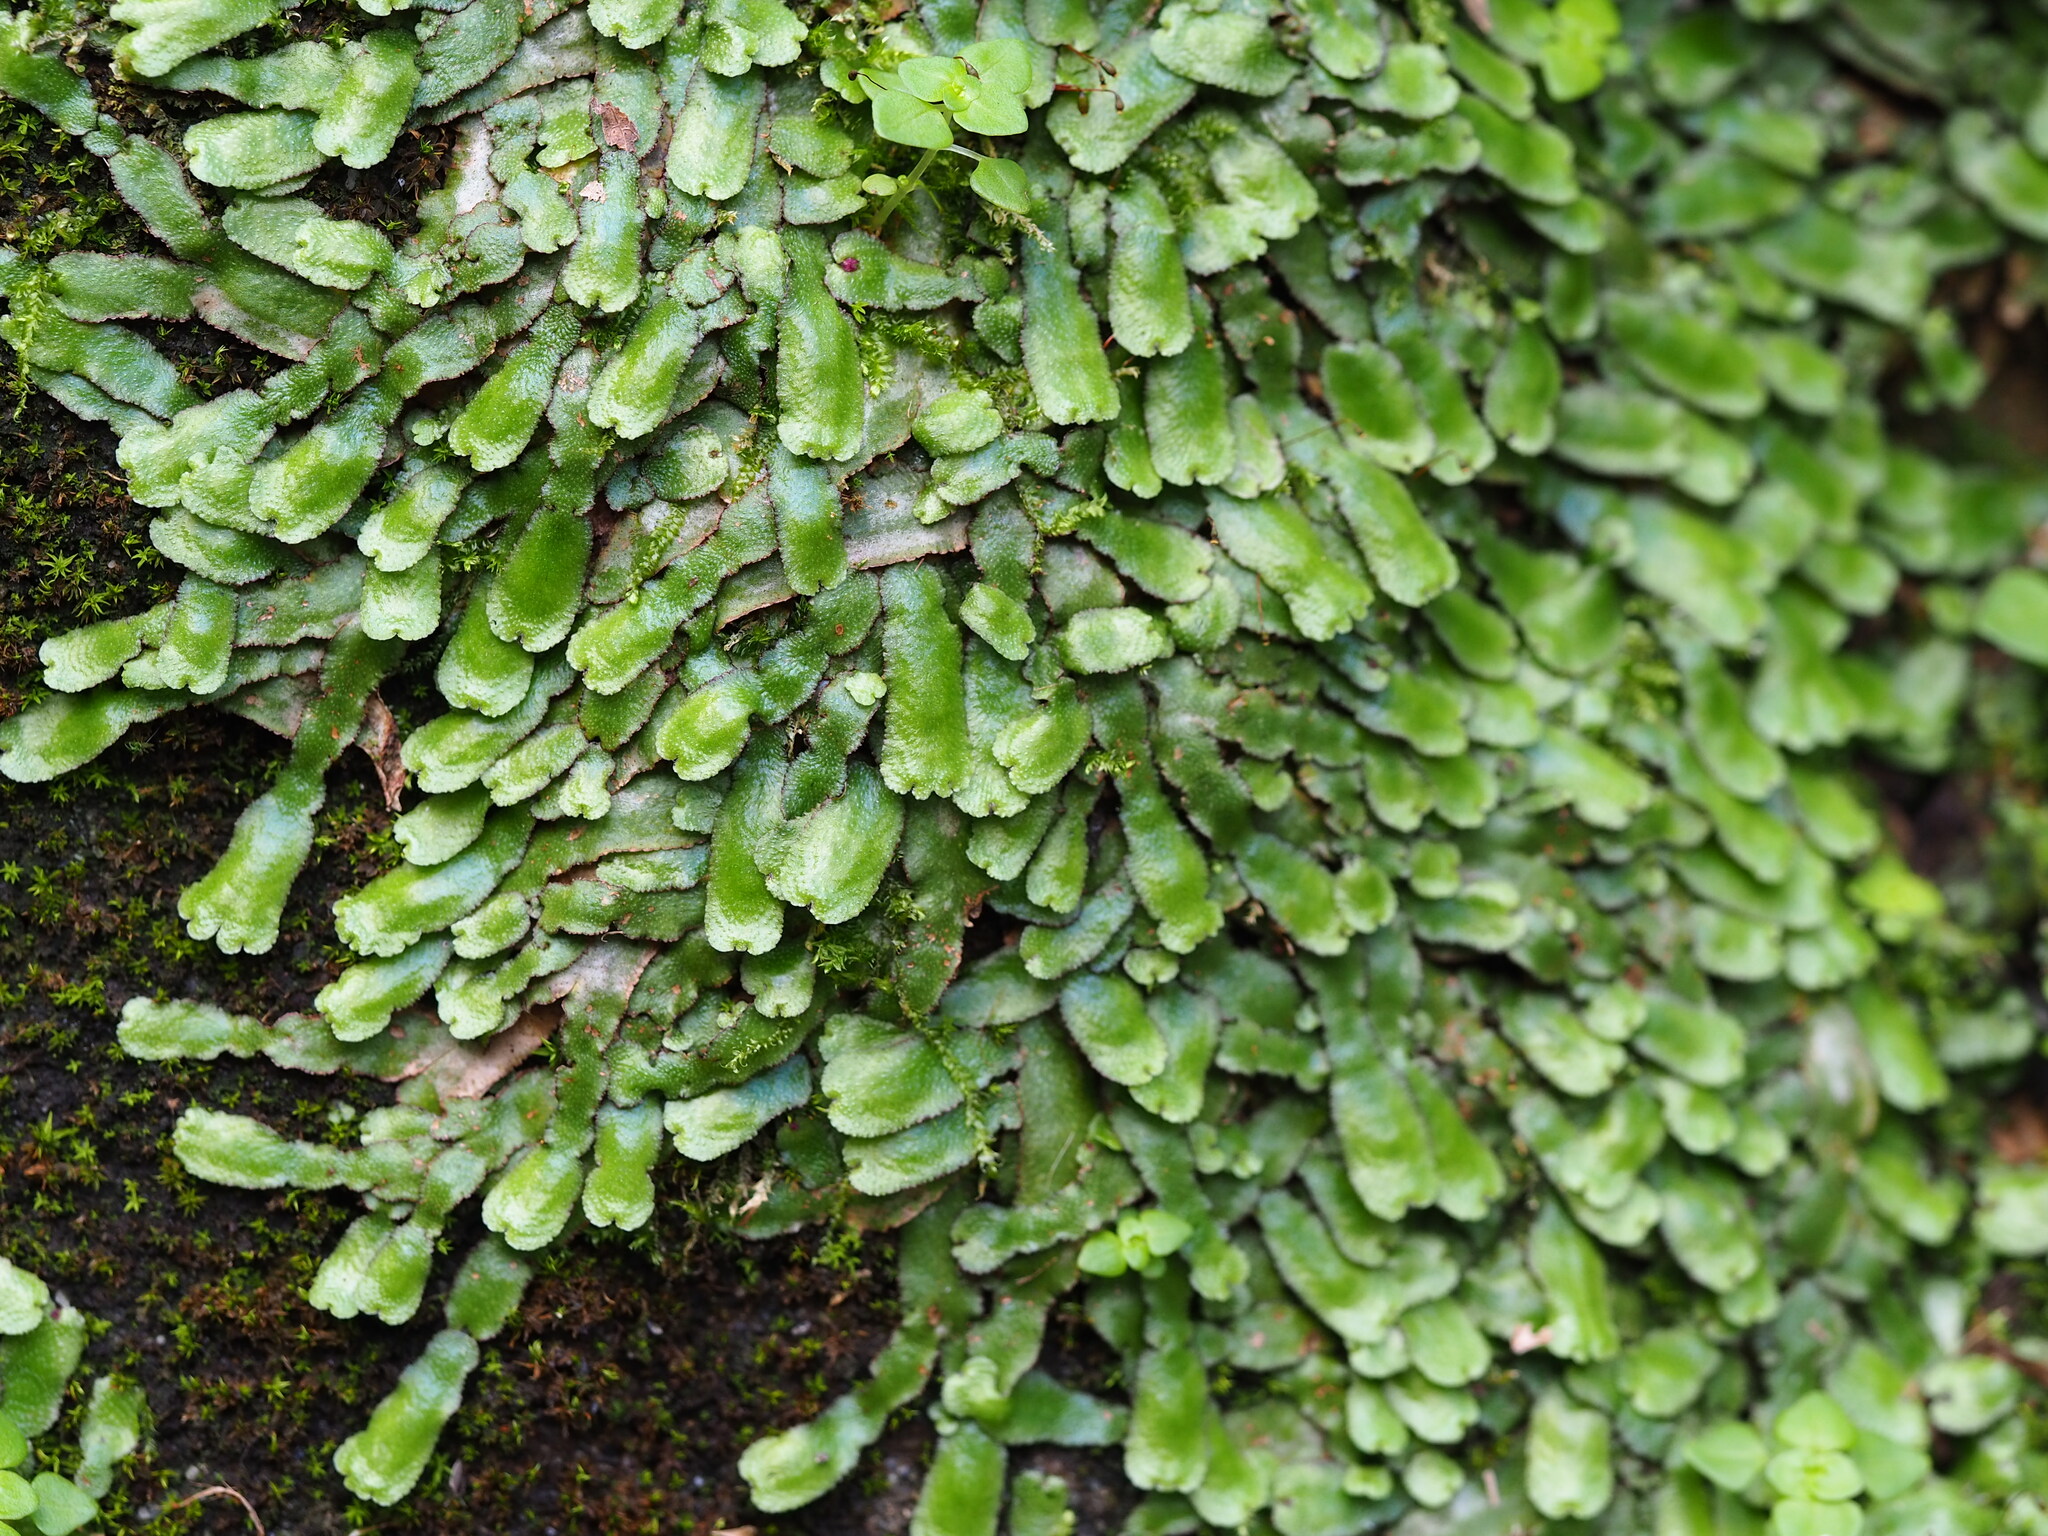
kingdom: Plantae
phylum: Marchantiophyta
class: Marchantiopsida
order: Marchantiales
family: Aytoniaceae
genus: Reboulia
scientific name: Reboulia hemisphaerica
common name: Purple-margined liverwort
